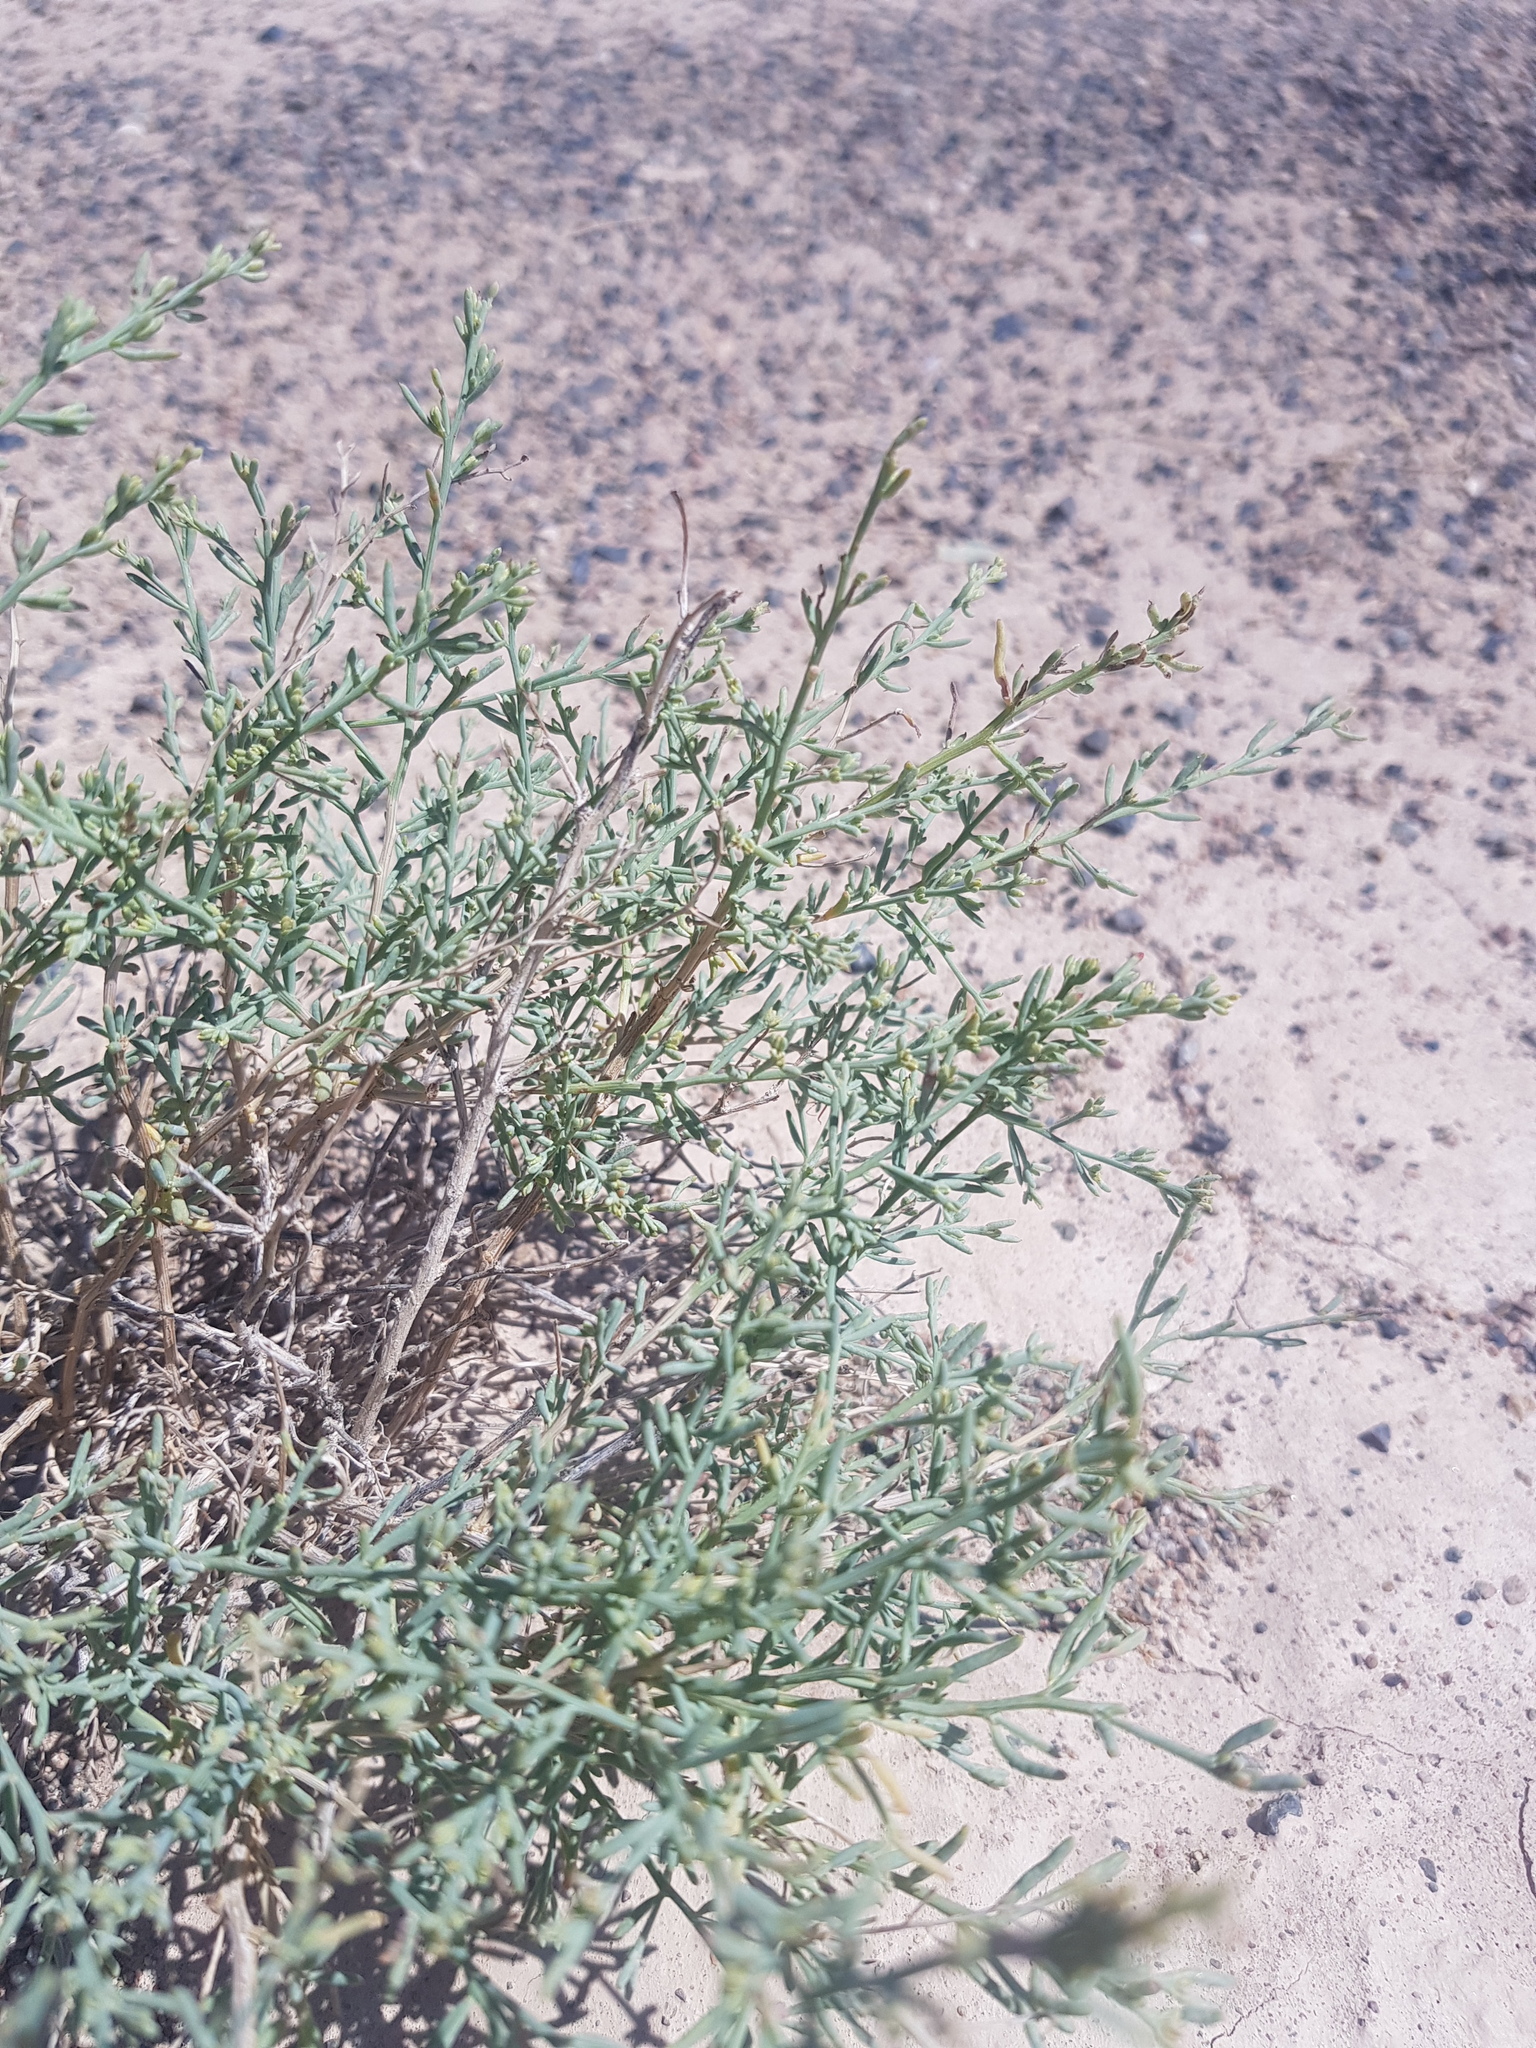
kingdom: Plantae
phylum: Tracheophyta
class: Magnoliopsida
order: Caryophyllales
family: Amaranthaceae
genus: Sympegma
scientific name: Sympegma regelii
